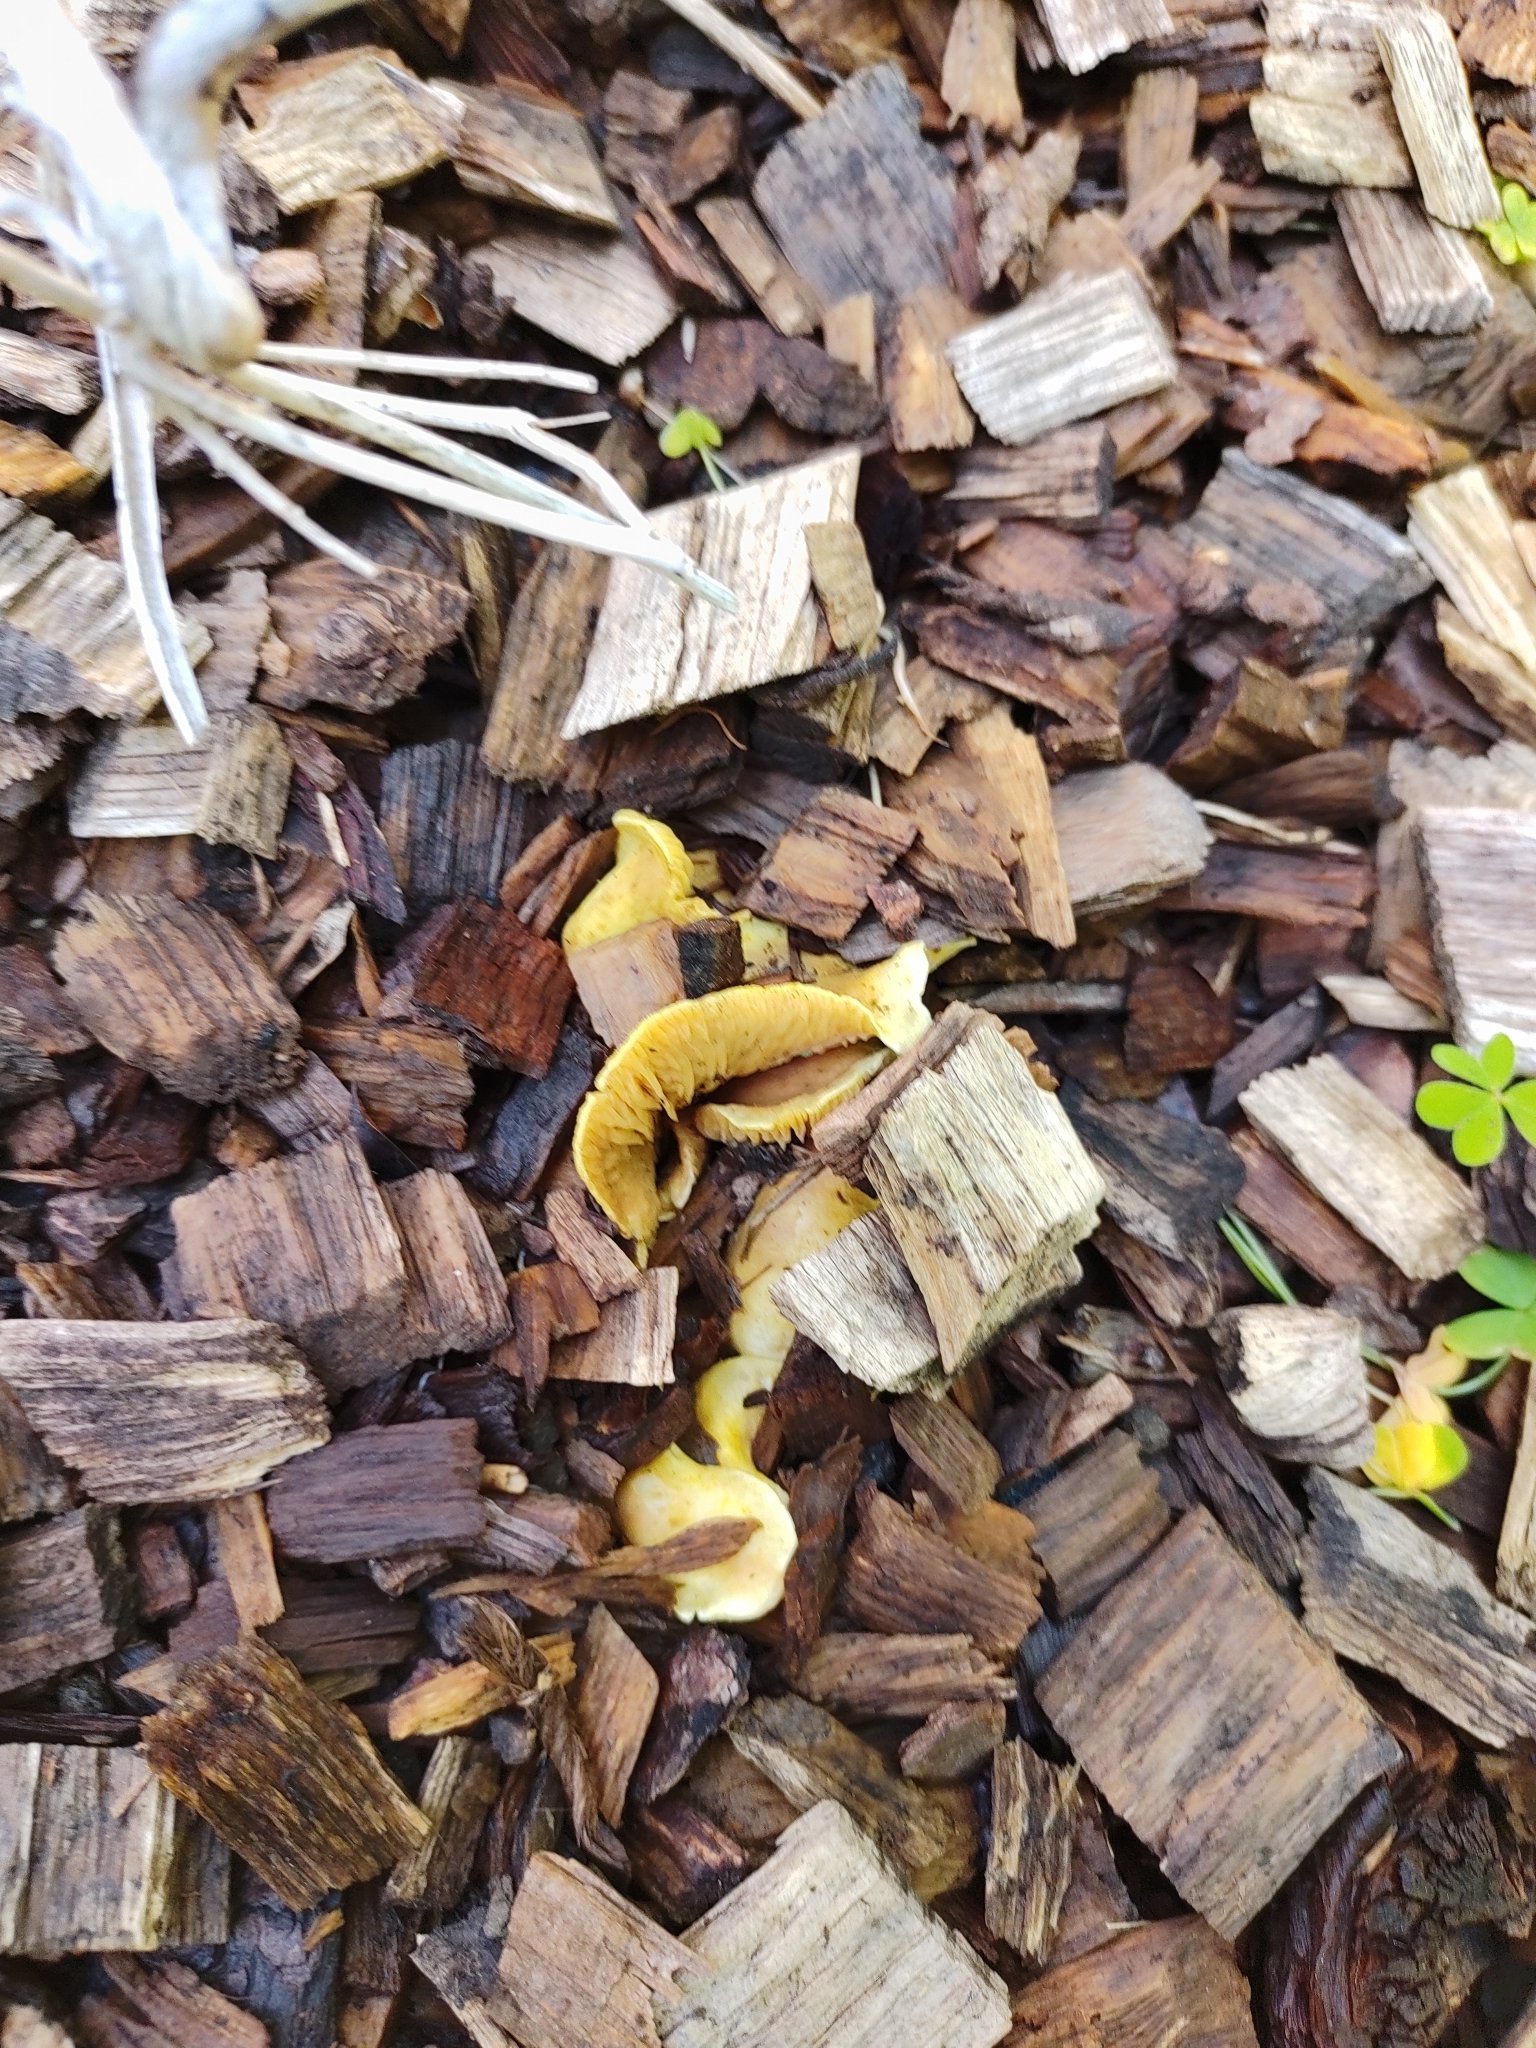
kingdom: Fungi
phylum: Basidiomycota
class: Agaricomycetes
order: Boletales
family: Tapinellaceae
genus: Tapinella
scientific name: Tapinella panuoides
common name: Oyster rollrim
